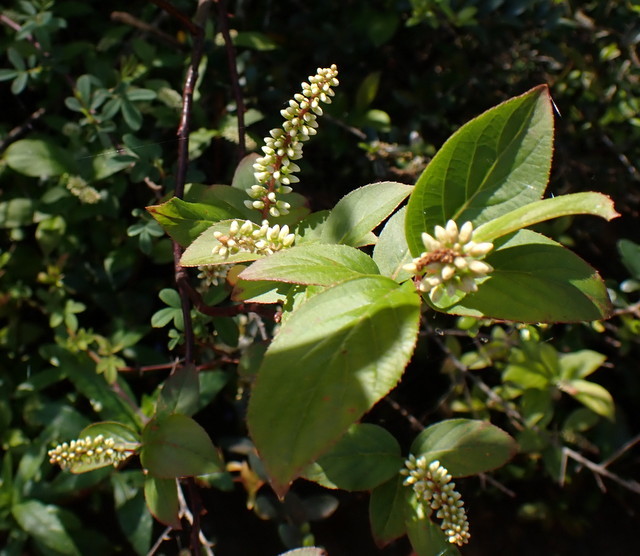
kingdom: Plantae
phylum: Tracheophyta
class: Magnoliopsida
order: Saxifragales
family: Iteaceae
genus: Itea
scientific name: Itea virginica
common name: Sweetspire
